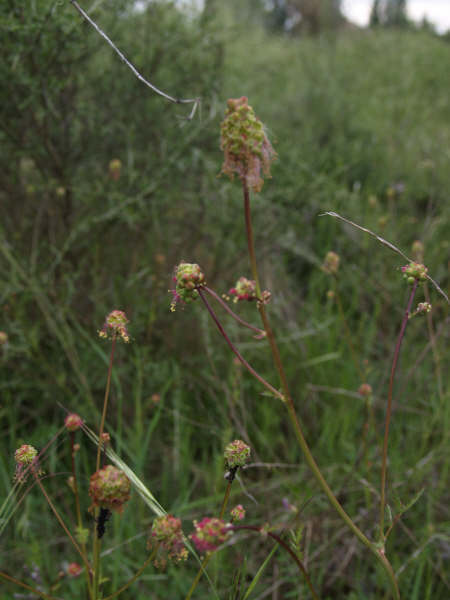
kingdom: Plantae
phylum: Tracheophyta
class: Magnoliopsida
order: Rosales
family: Rosaceae
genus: Poterium
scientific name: Poterium sanguisorba
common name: Salad burnet
